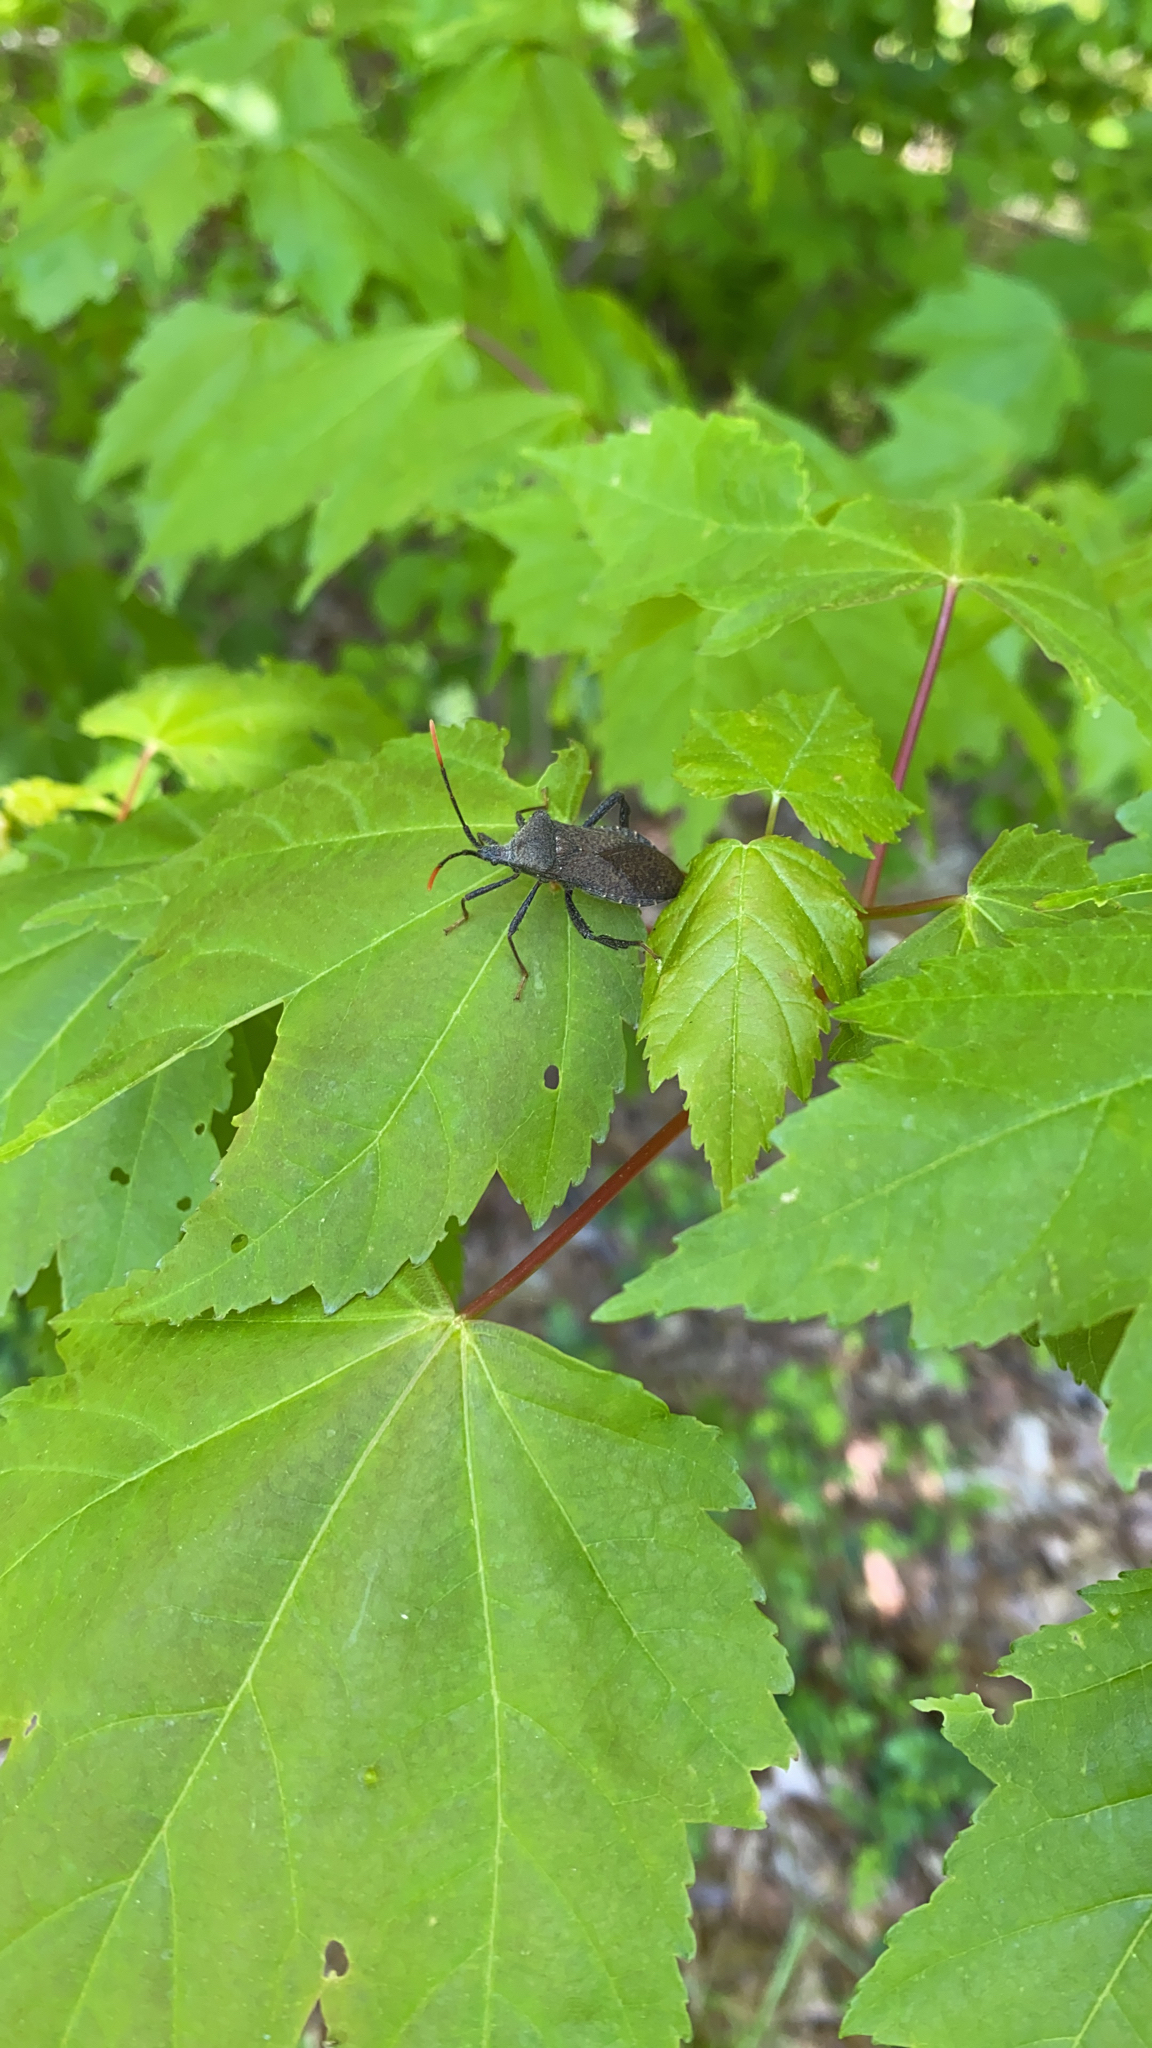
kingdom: Animalia
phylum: Arthropoda
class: Insecta
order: Hemiptera
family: Coreidae
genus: Acanthocephala
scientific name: Acanthocephala terminalis
